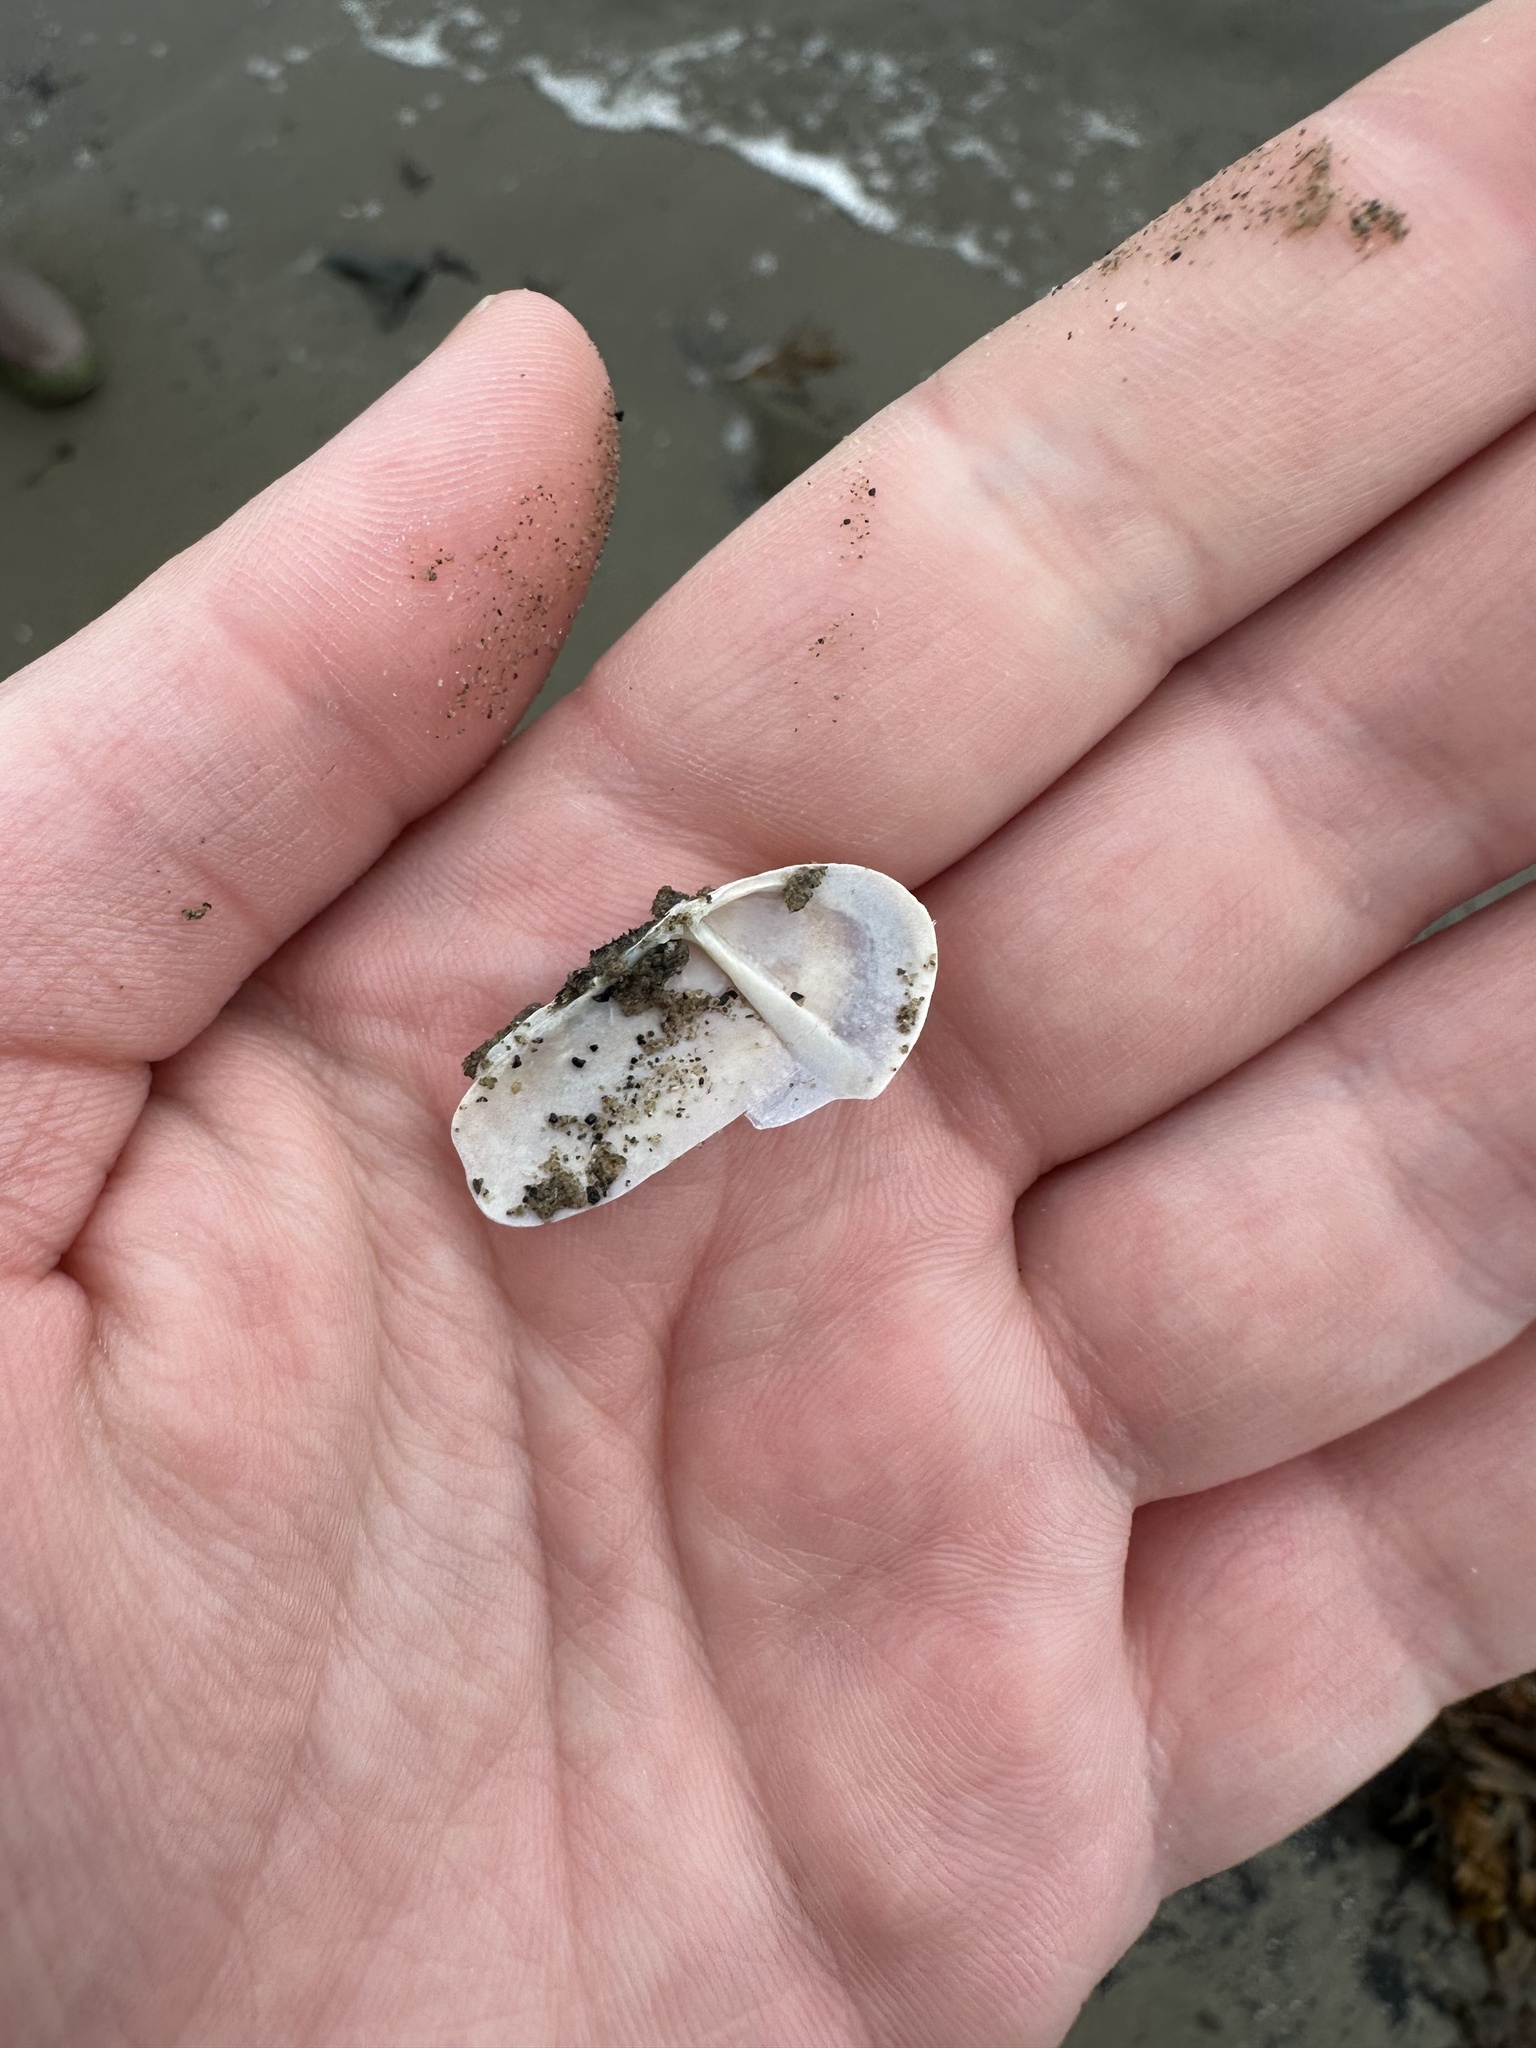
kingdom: Animalia
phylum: Mollusca
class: Bivalvia
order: Adapedonta
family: Pharidae
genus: Siliqua
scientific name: Siliqua costata
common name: Atlantic razor
